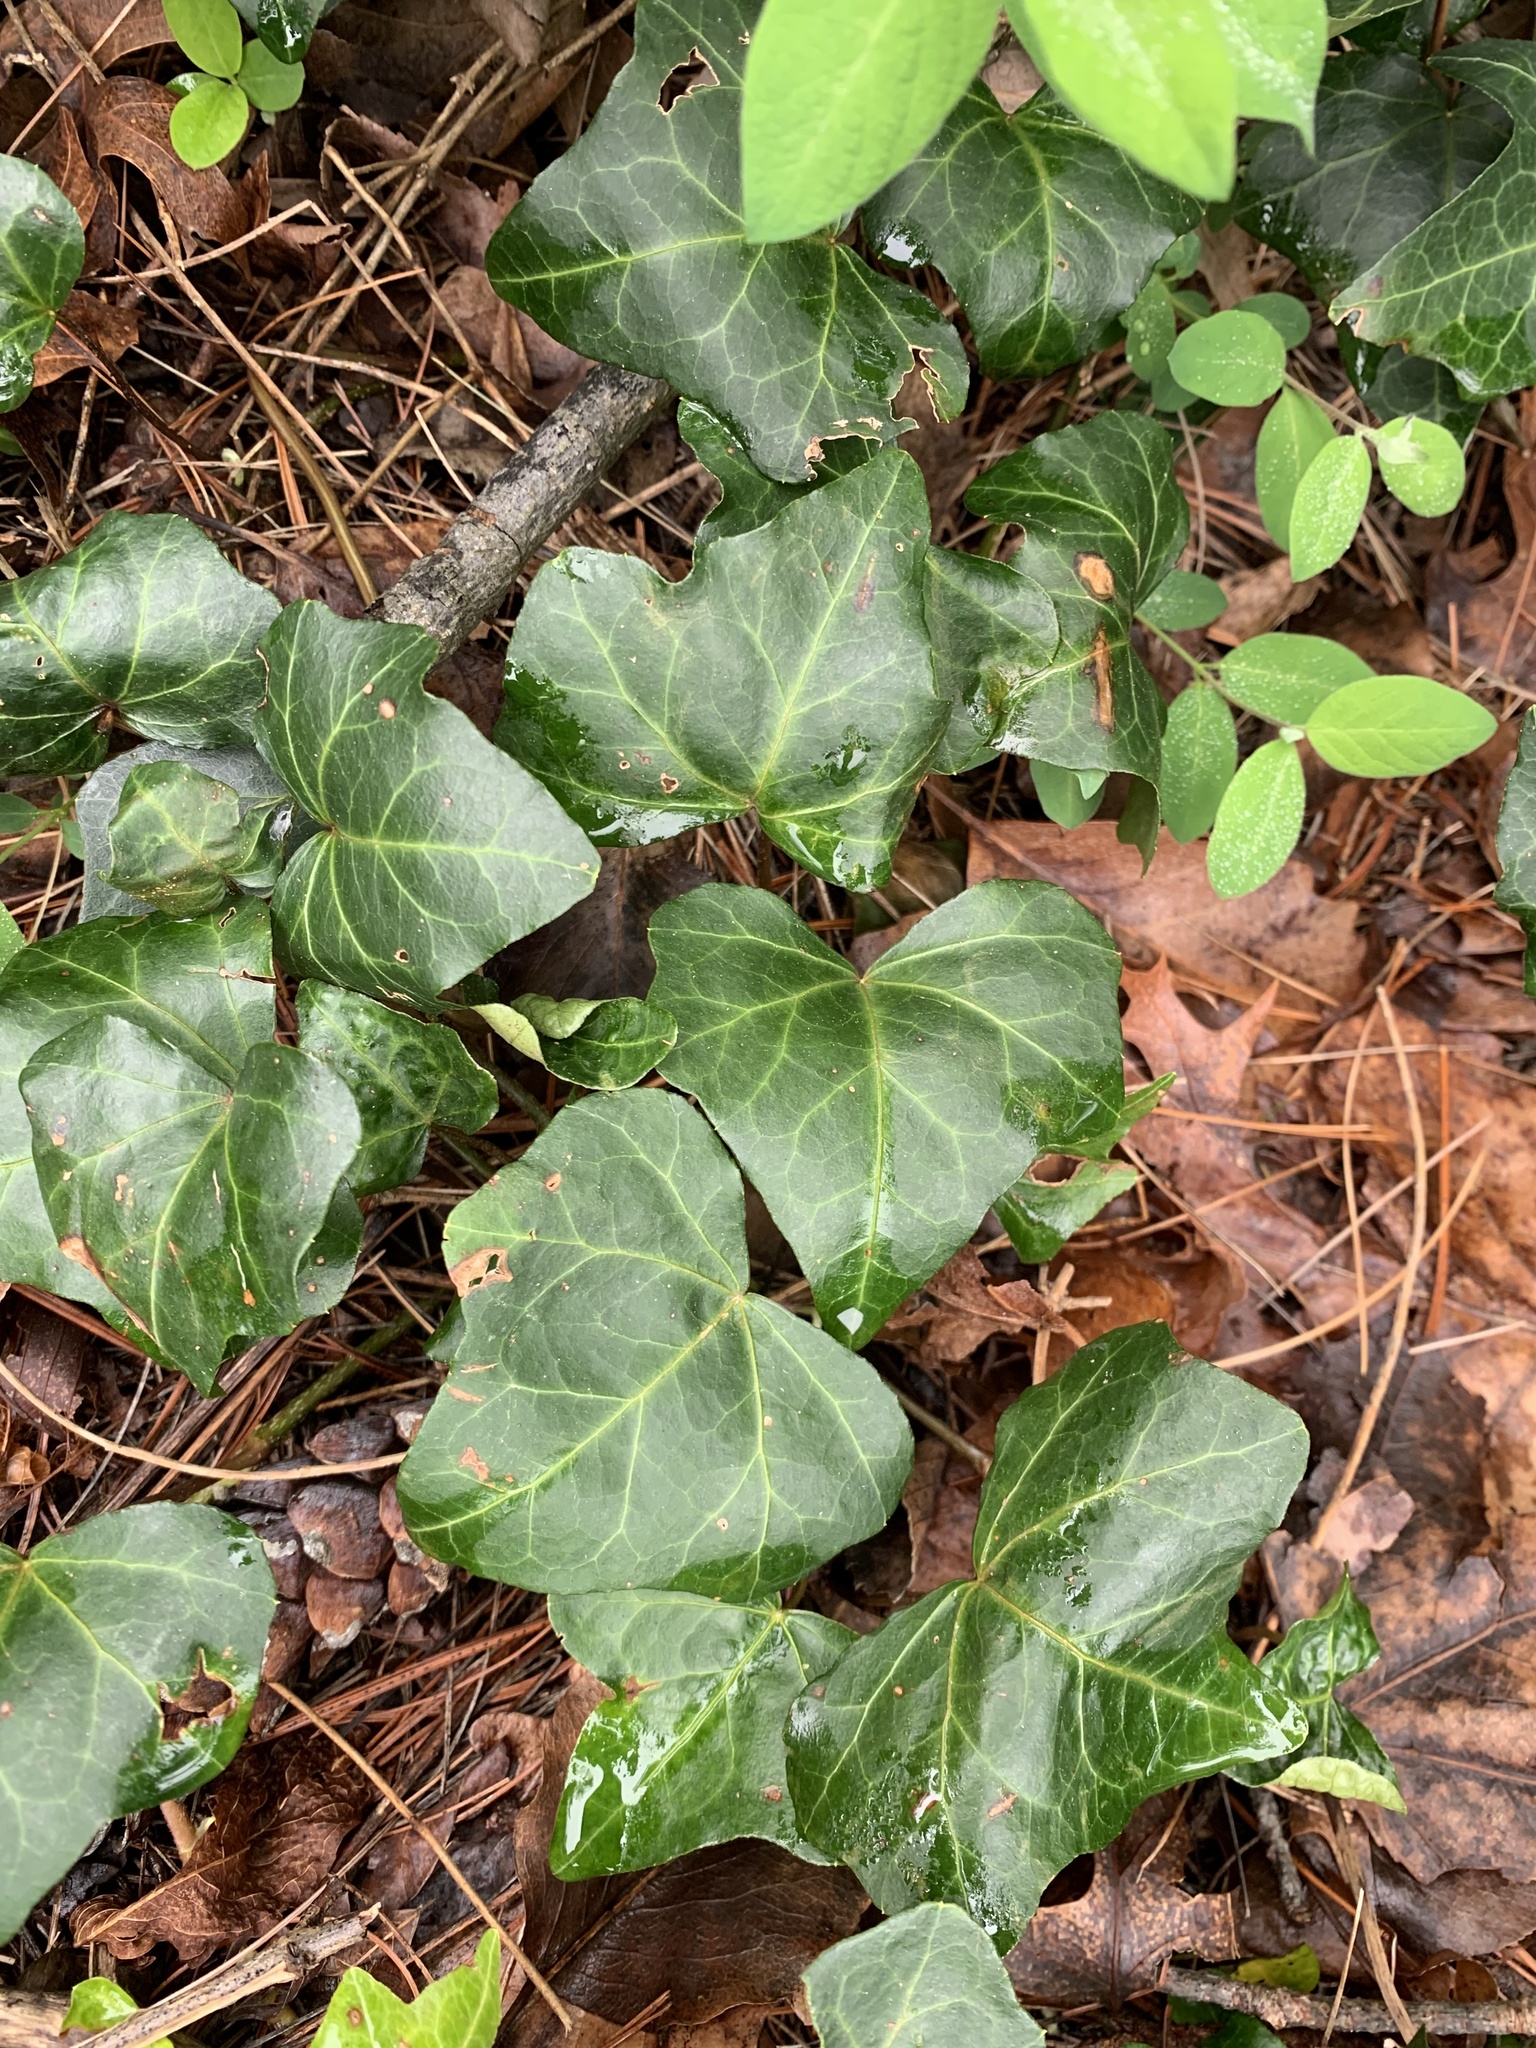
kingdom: Plantae
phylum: Tracheophyta
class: Magnoliopsida
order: Apiales
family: Araliaceae
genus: Hedera
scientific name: Hedera helix
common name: Ivy
